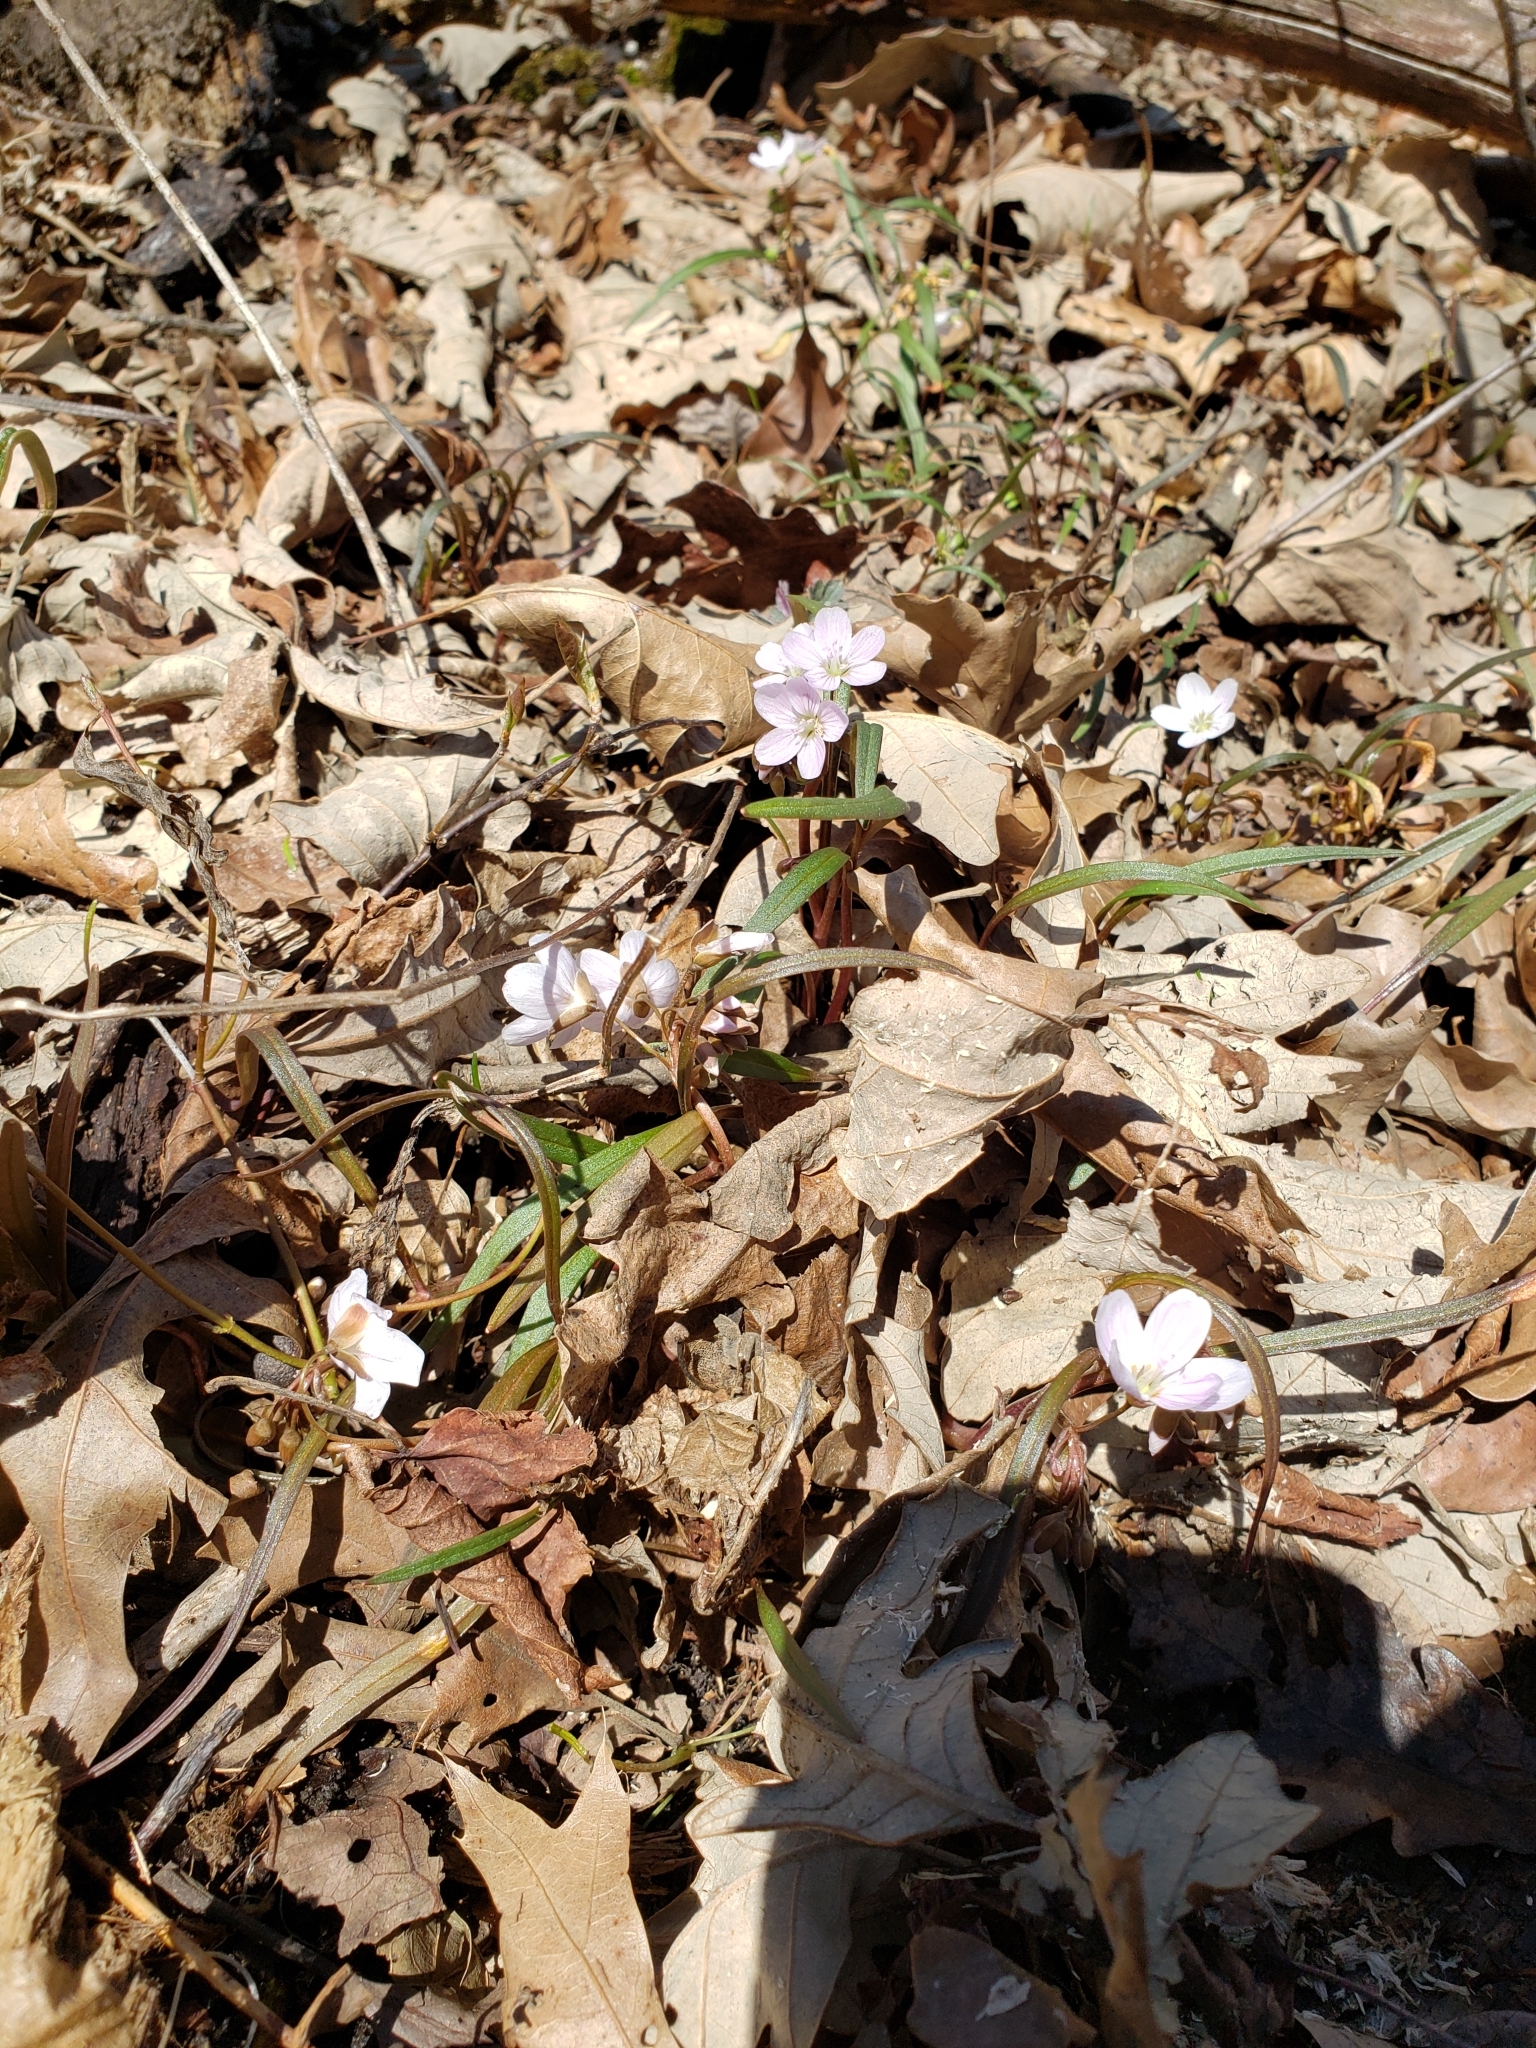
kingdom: Plantae
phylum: Tracheophyta
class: Magnoliopsida
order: Caryophyllales
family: Montiaceae
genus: Claytonia
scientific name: Claytonia virginica
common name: Virginia springbeauty
